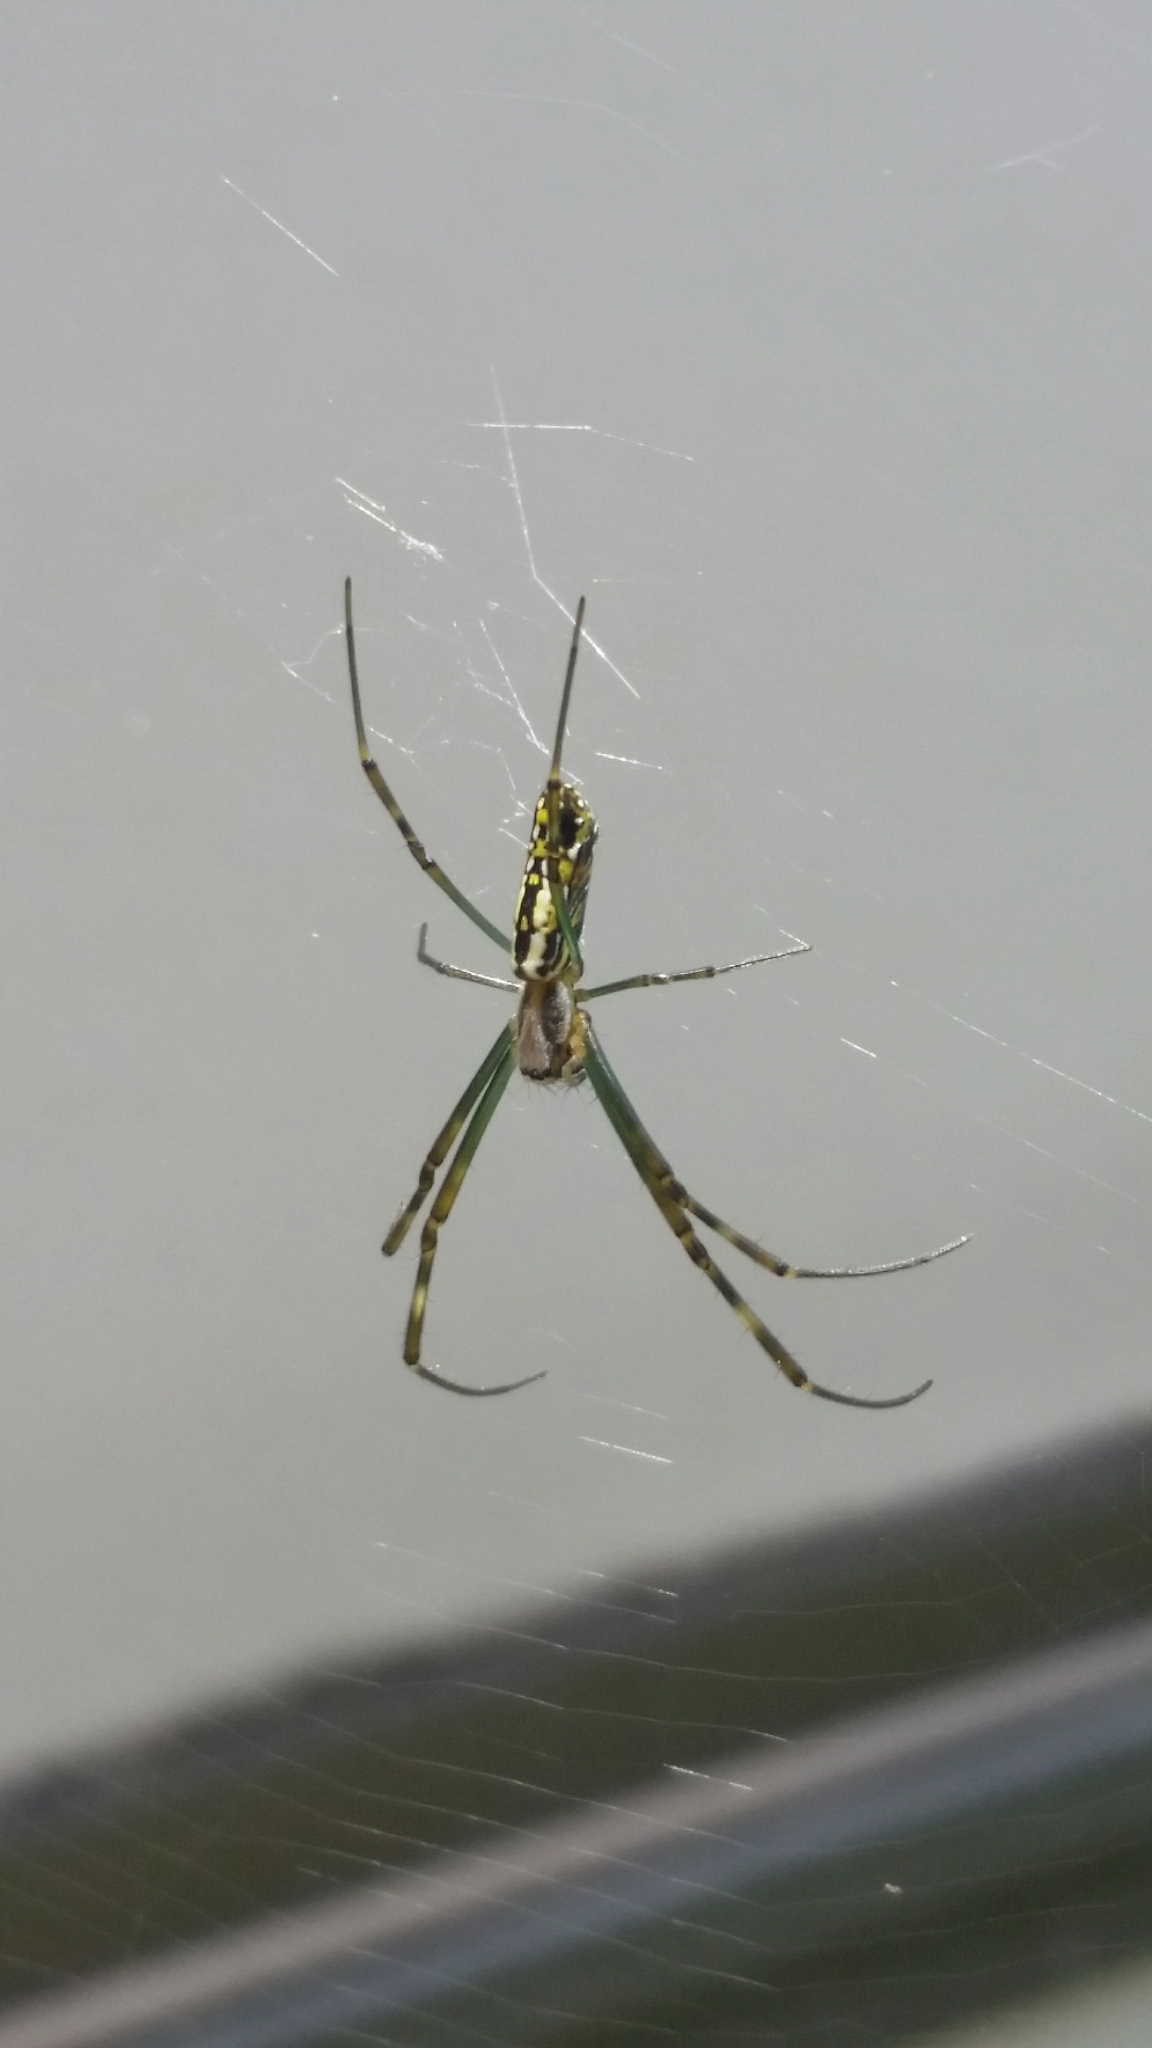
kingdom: Animalia
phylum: Arthropoda
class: Arachnida
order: Araneae
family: Araneidae
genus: Trichonephila
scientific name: Trichonephila clavata
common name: Jorō spider
